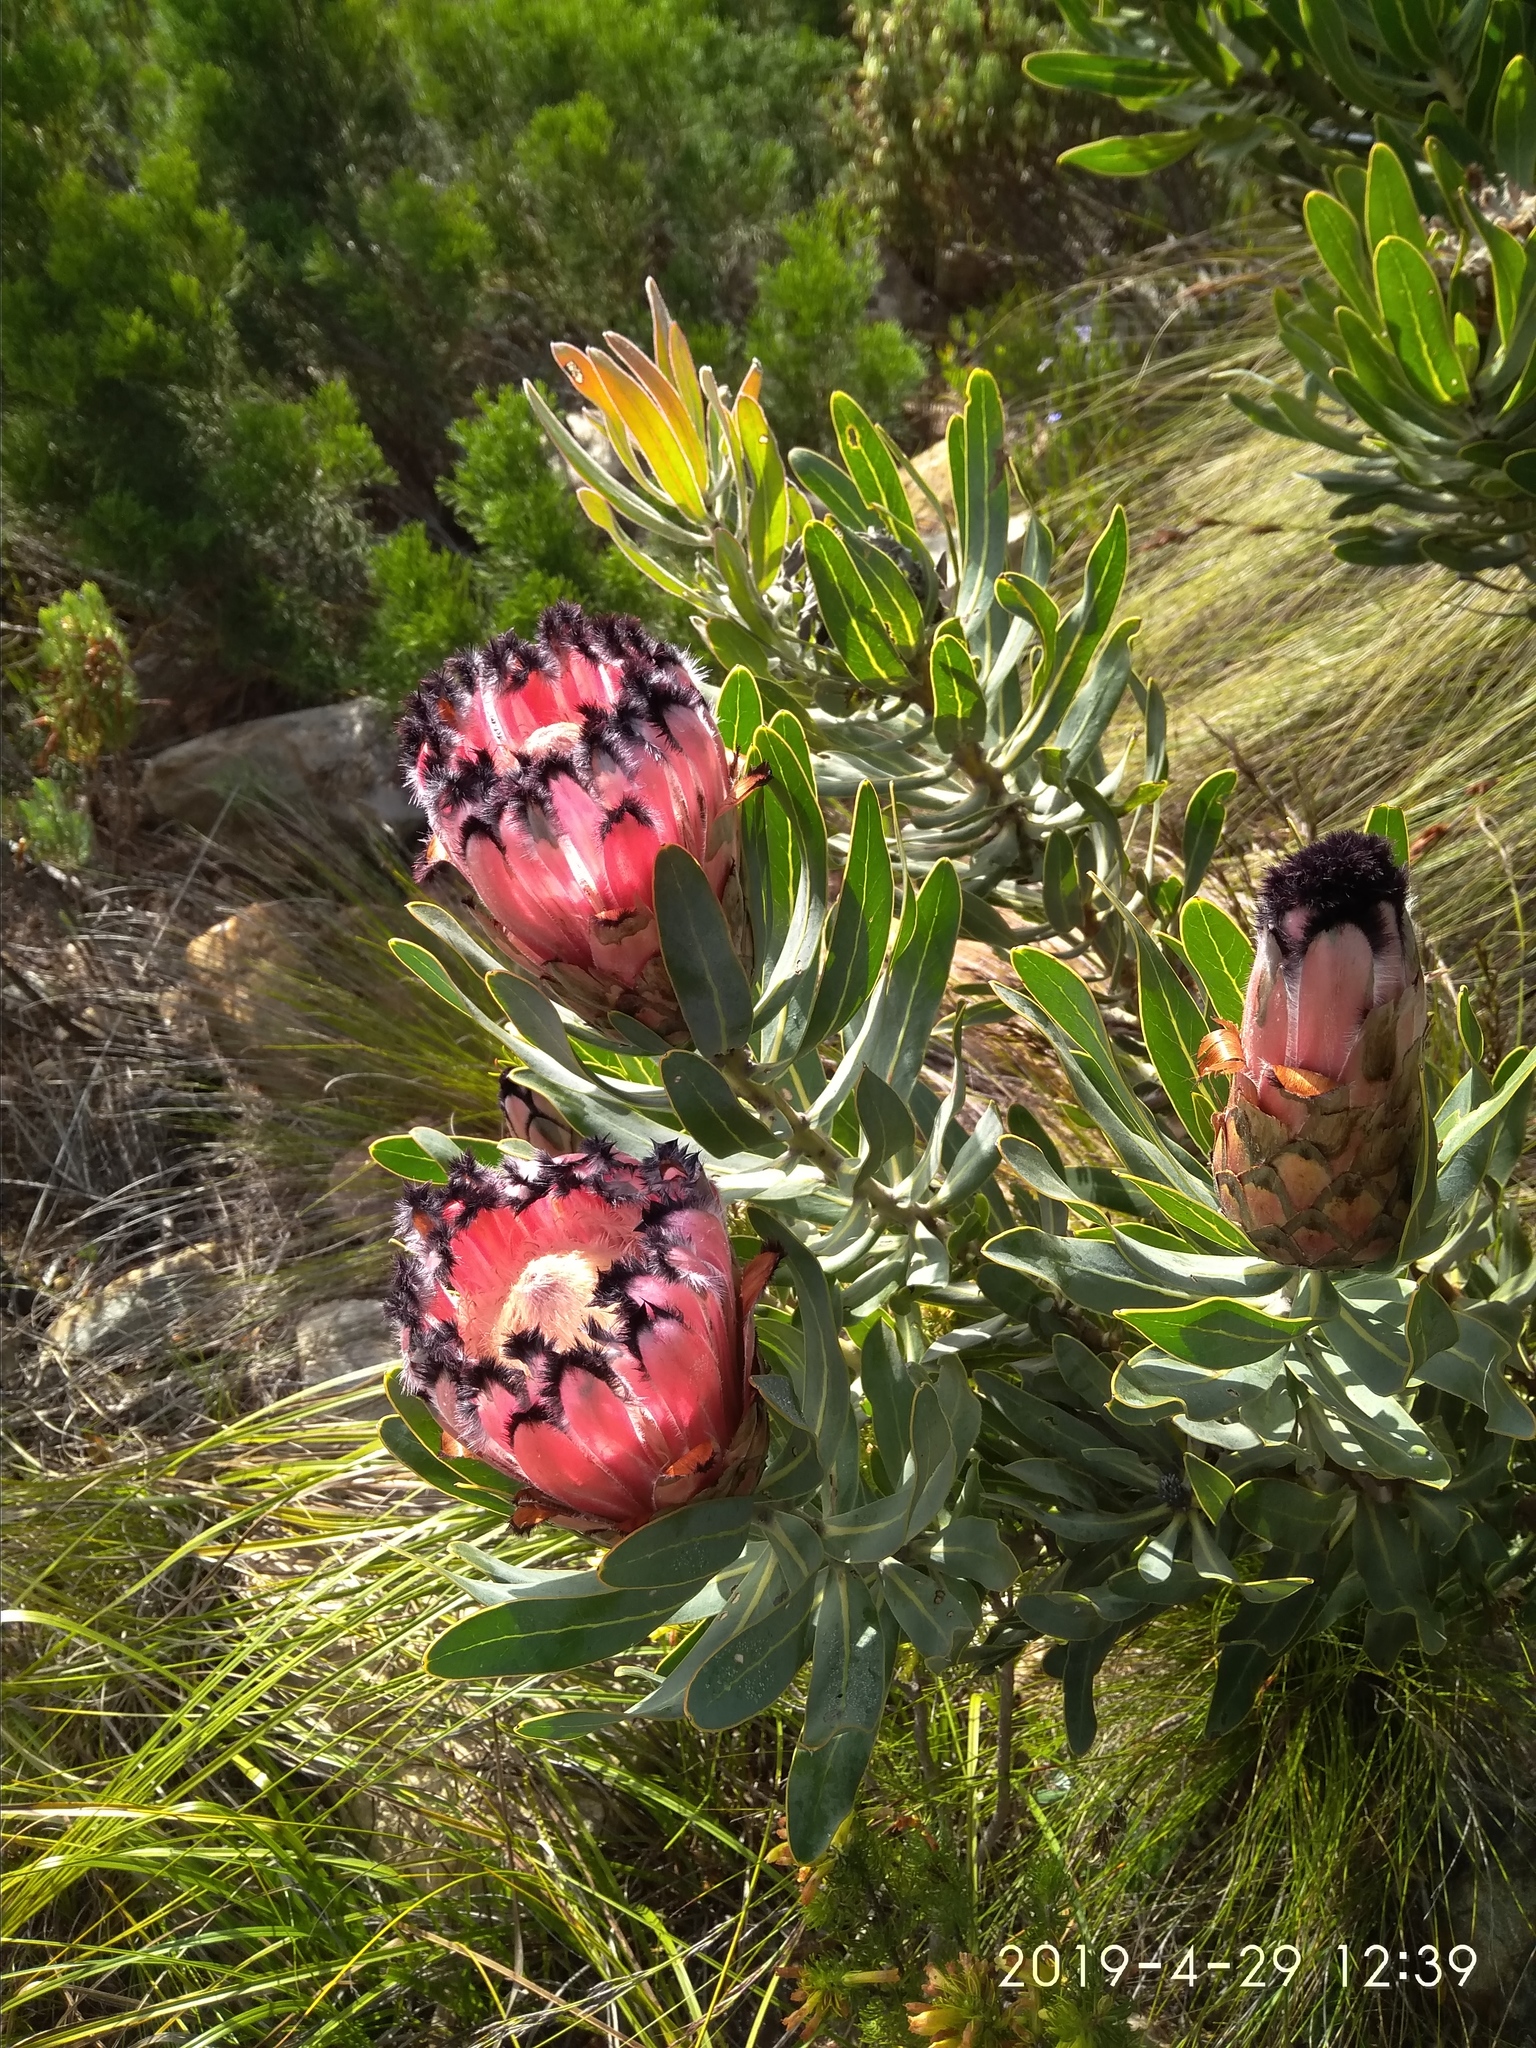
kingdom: Plantae
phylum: Tracheophyta
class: Magnoliopsida
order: Proteales
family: Proteaceae
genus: Protea
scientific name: Protea neriifolia
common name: Blue sugarbush
